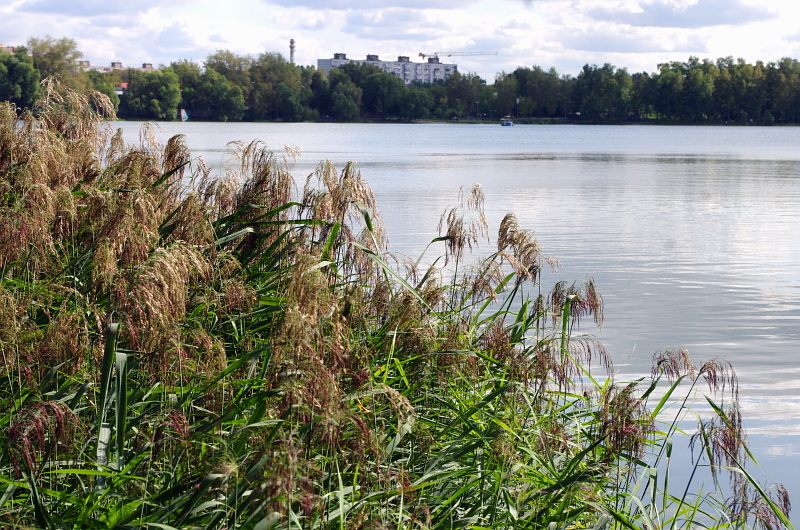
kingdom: Plantae
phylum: Tracheophyta
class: Liliopsida
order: Poales
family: Poaceae
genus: Phragmites
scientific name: Phragmites australis
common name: Common reed
